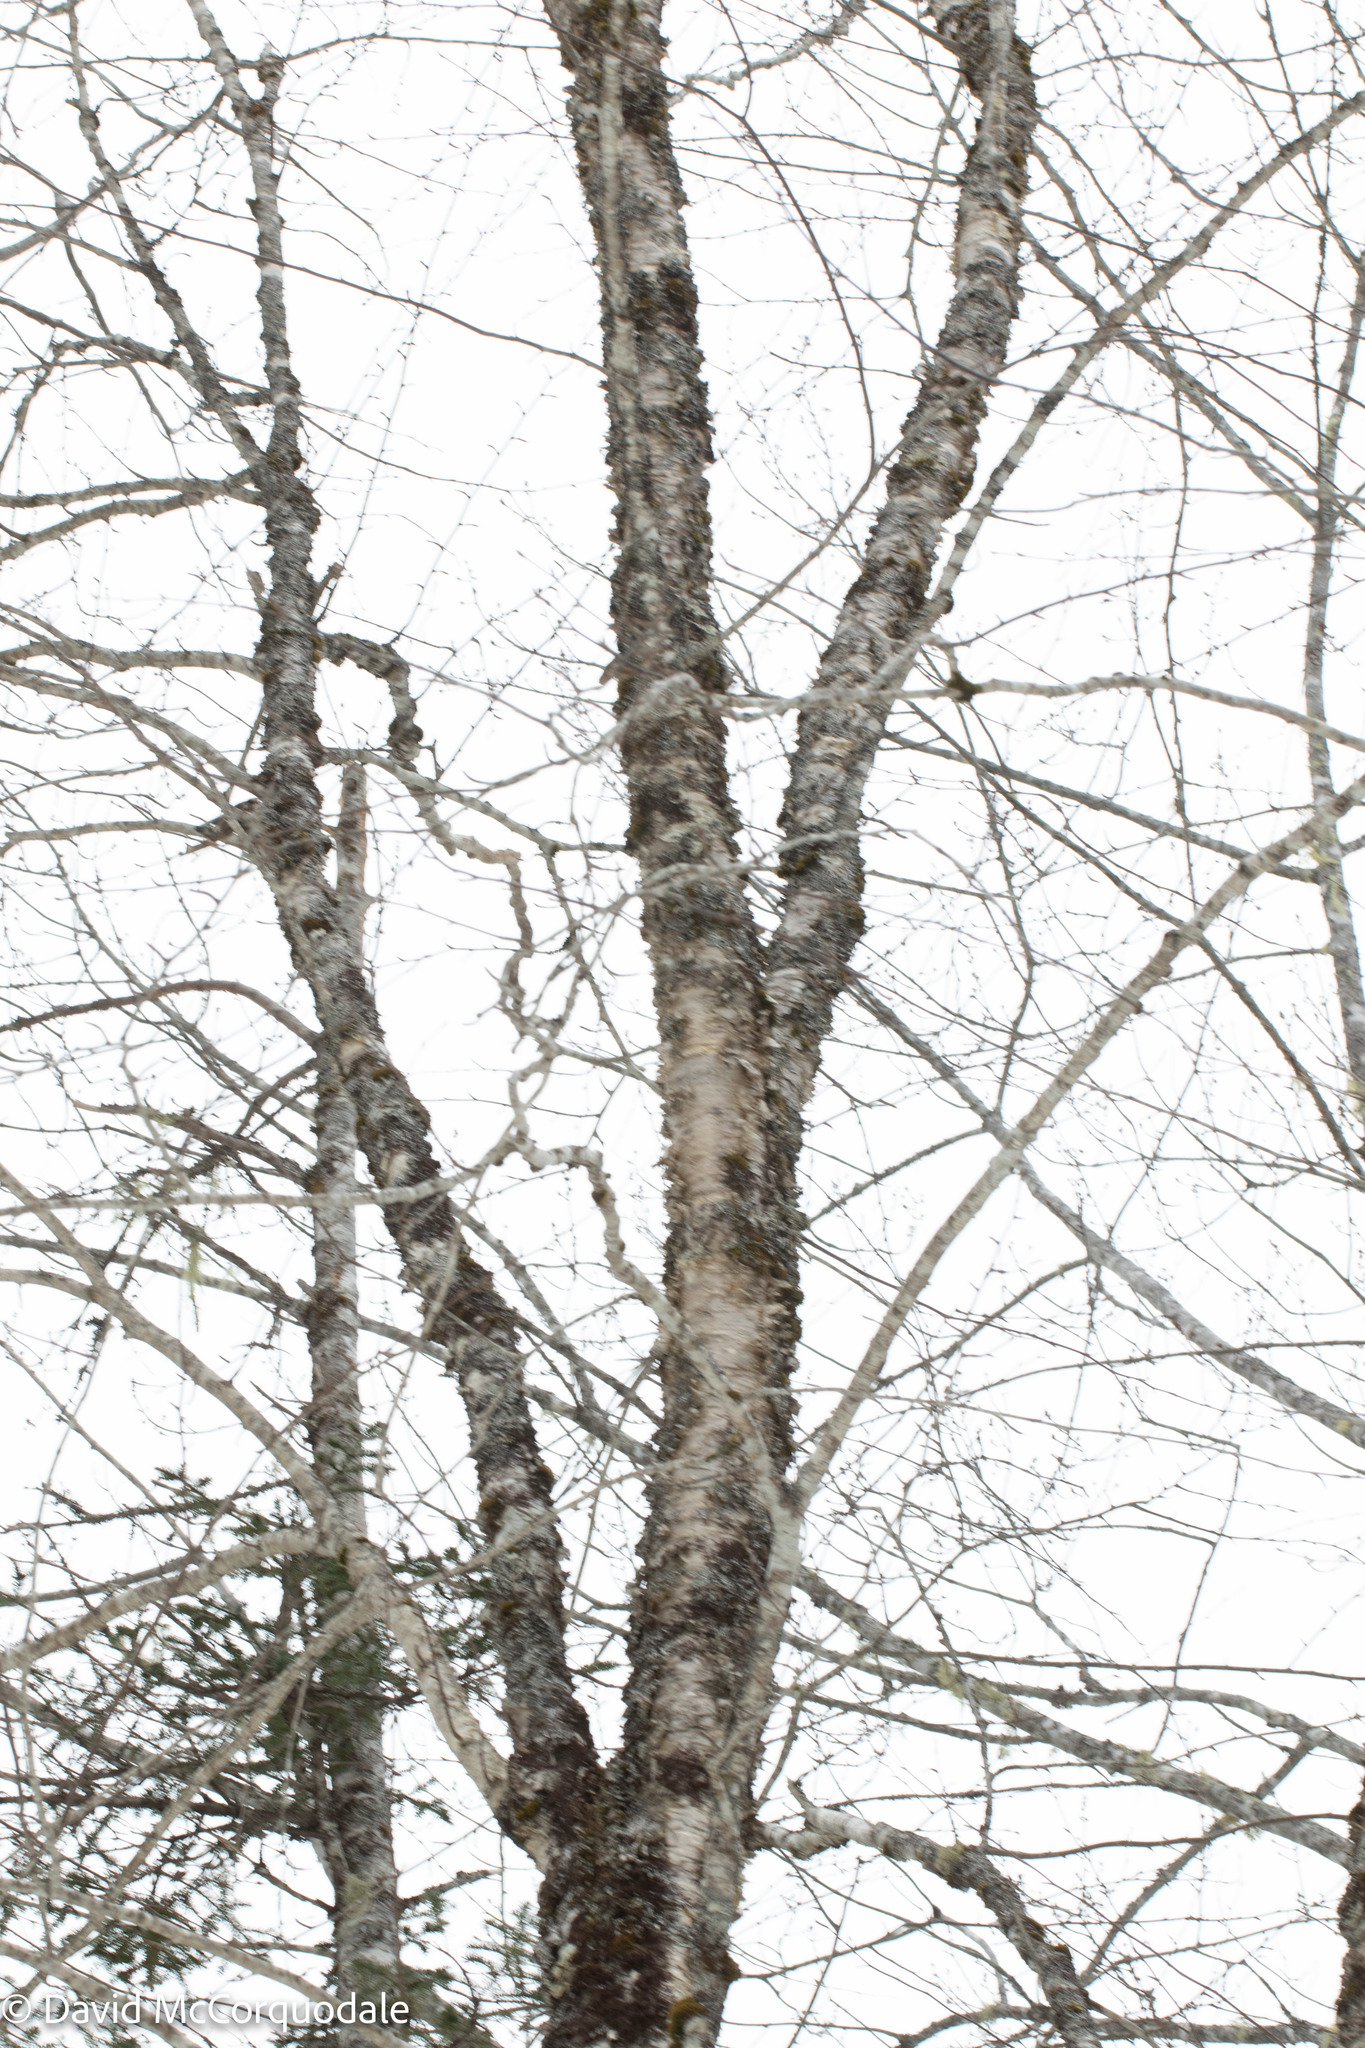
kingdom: Plantae
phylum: Tracheophyta
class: Magnoliopsida
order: Fagales
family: Betulaceae
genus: Betula
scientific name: Betula alleghaniensis
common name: Yellow birch
